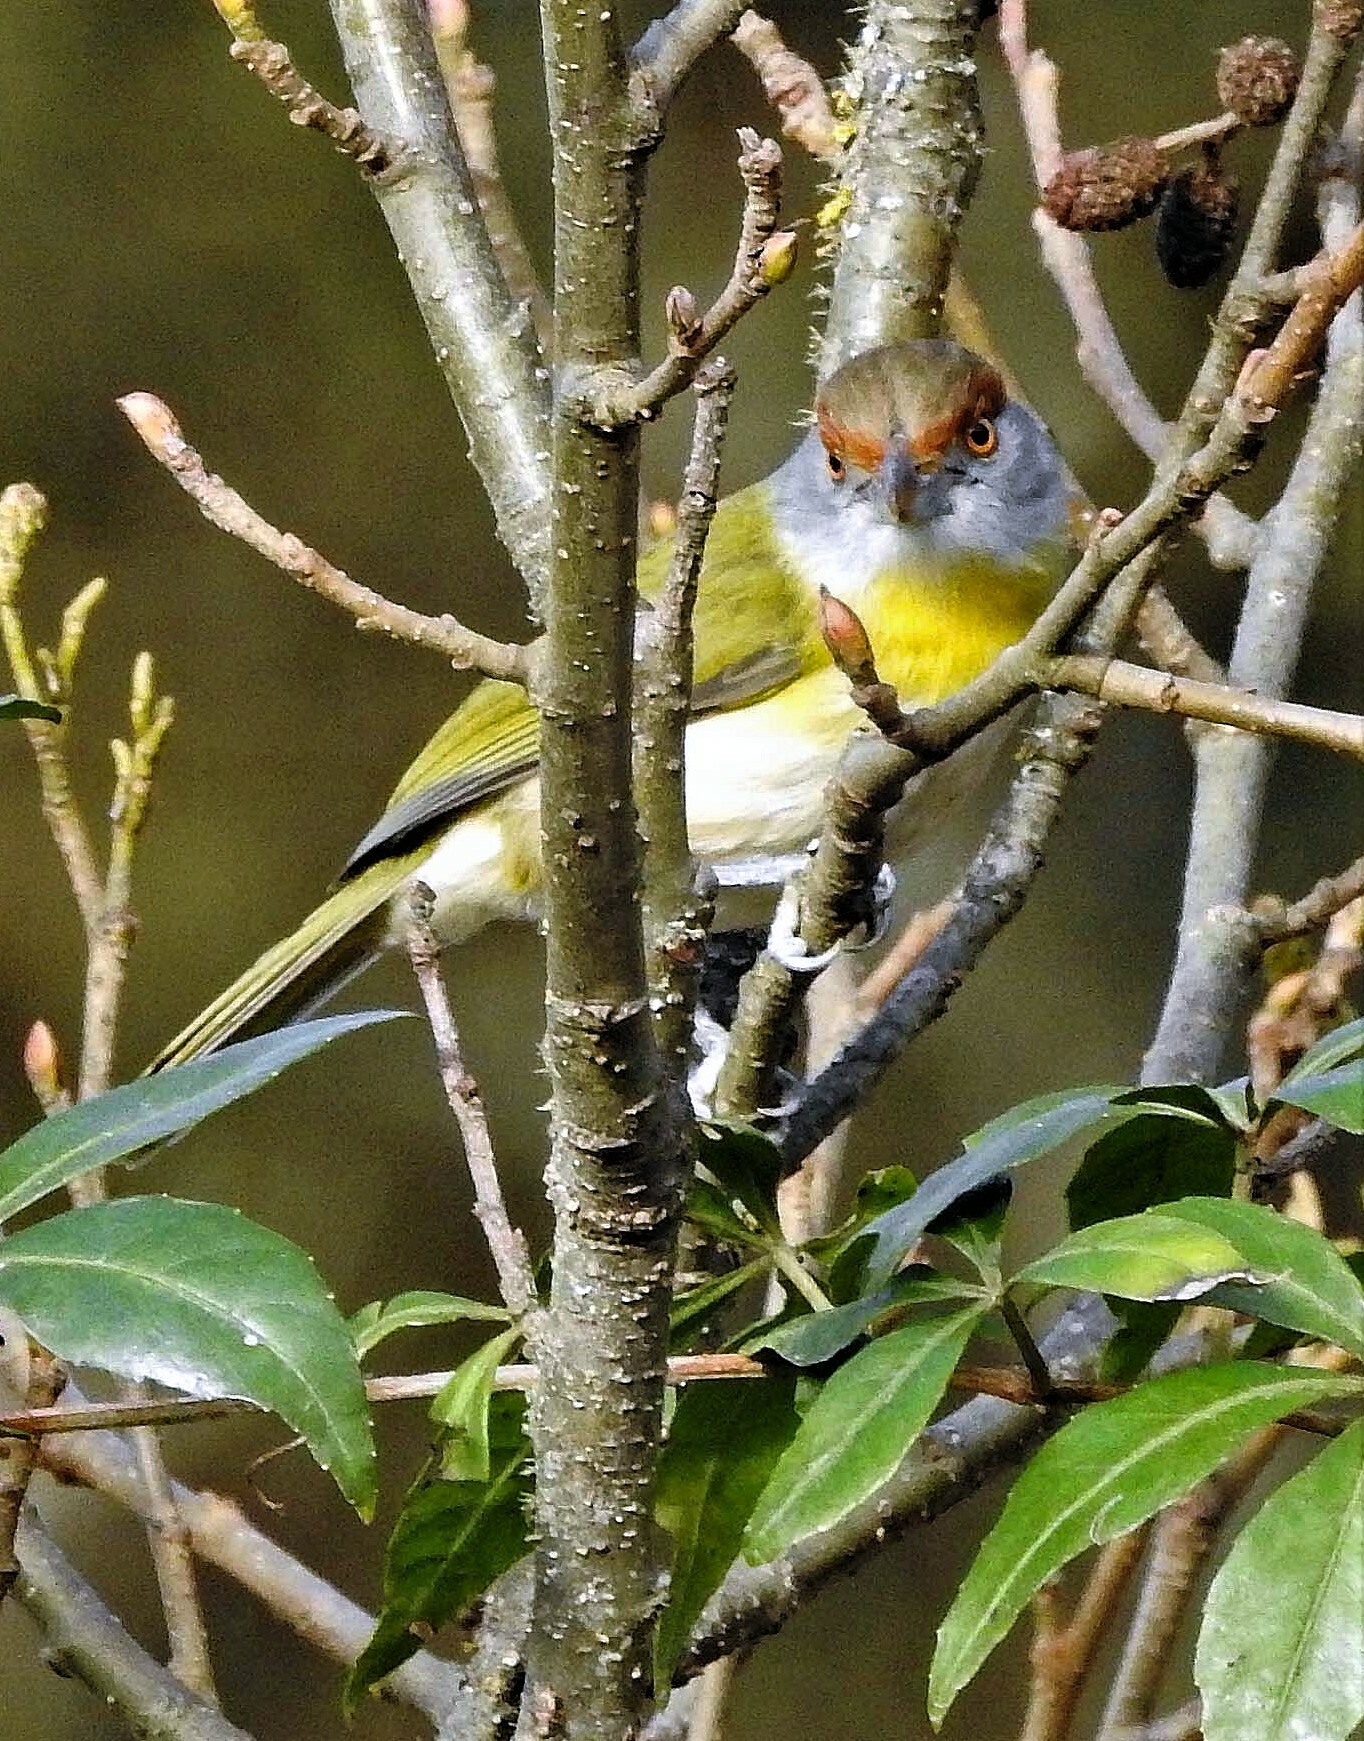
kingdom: Animalia
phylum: Chordata
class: Aves
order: Passeriformes
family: Vireonidae
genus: Cyclarhis
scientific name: Cyclarhis gujanensis
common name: Rufous-browed peppershrike
